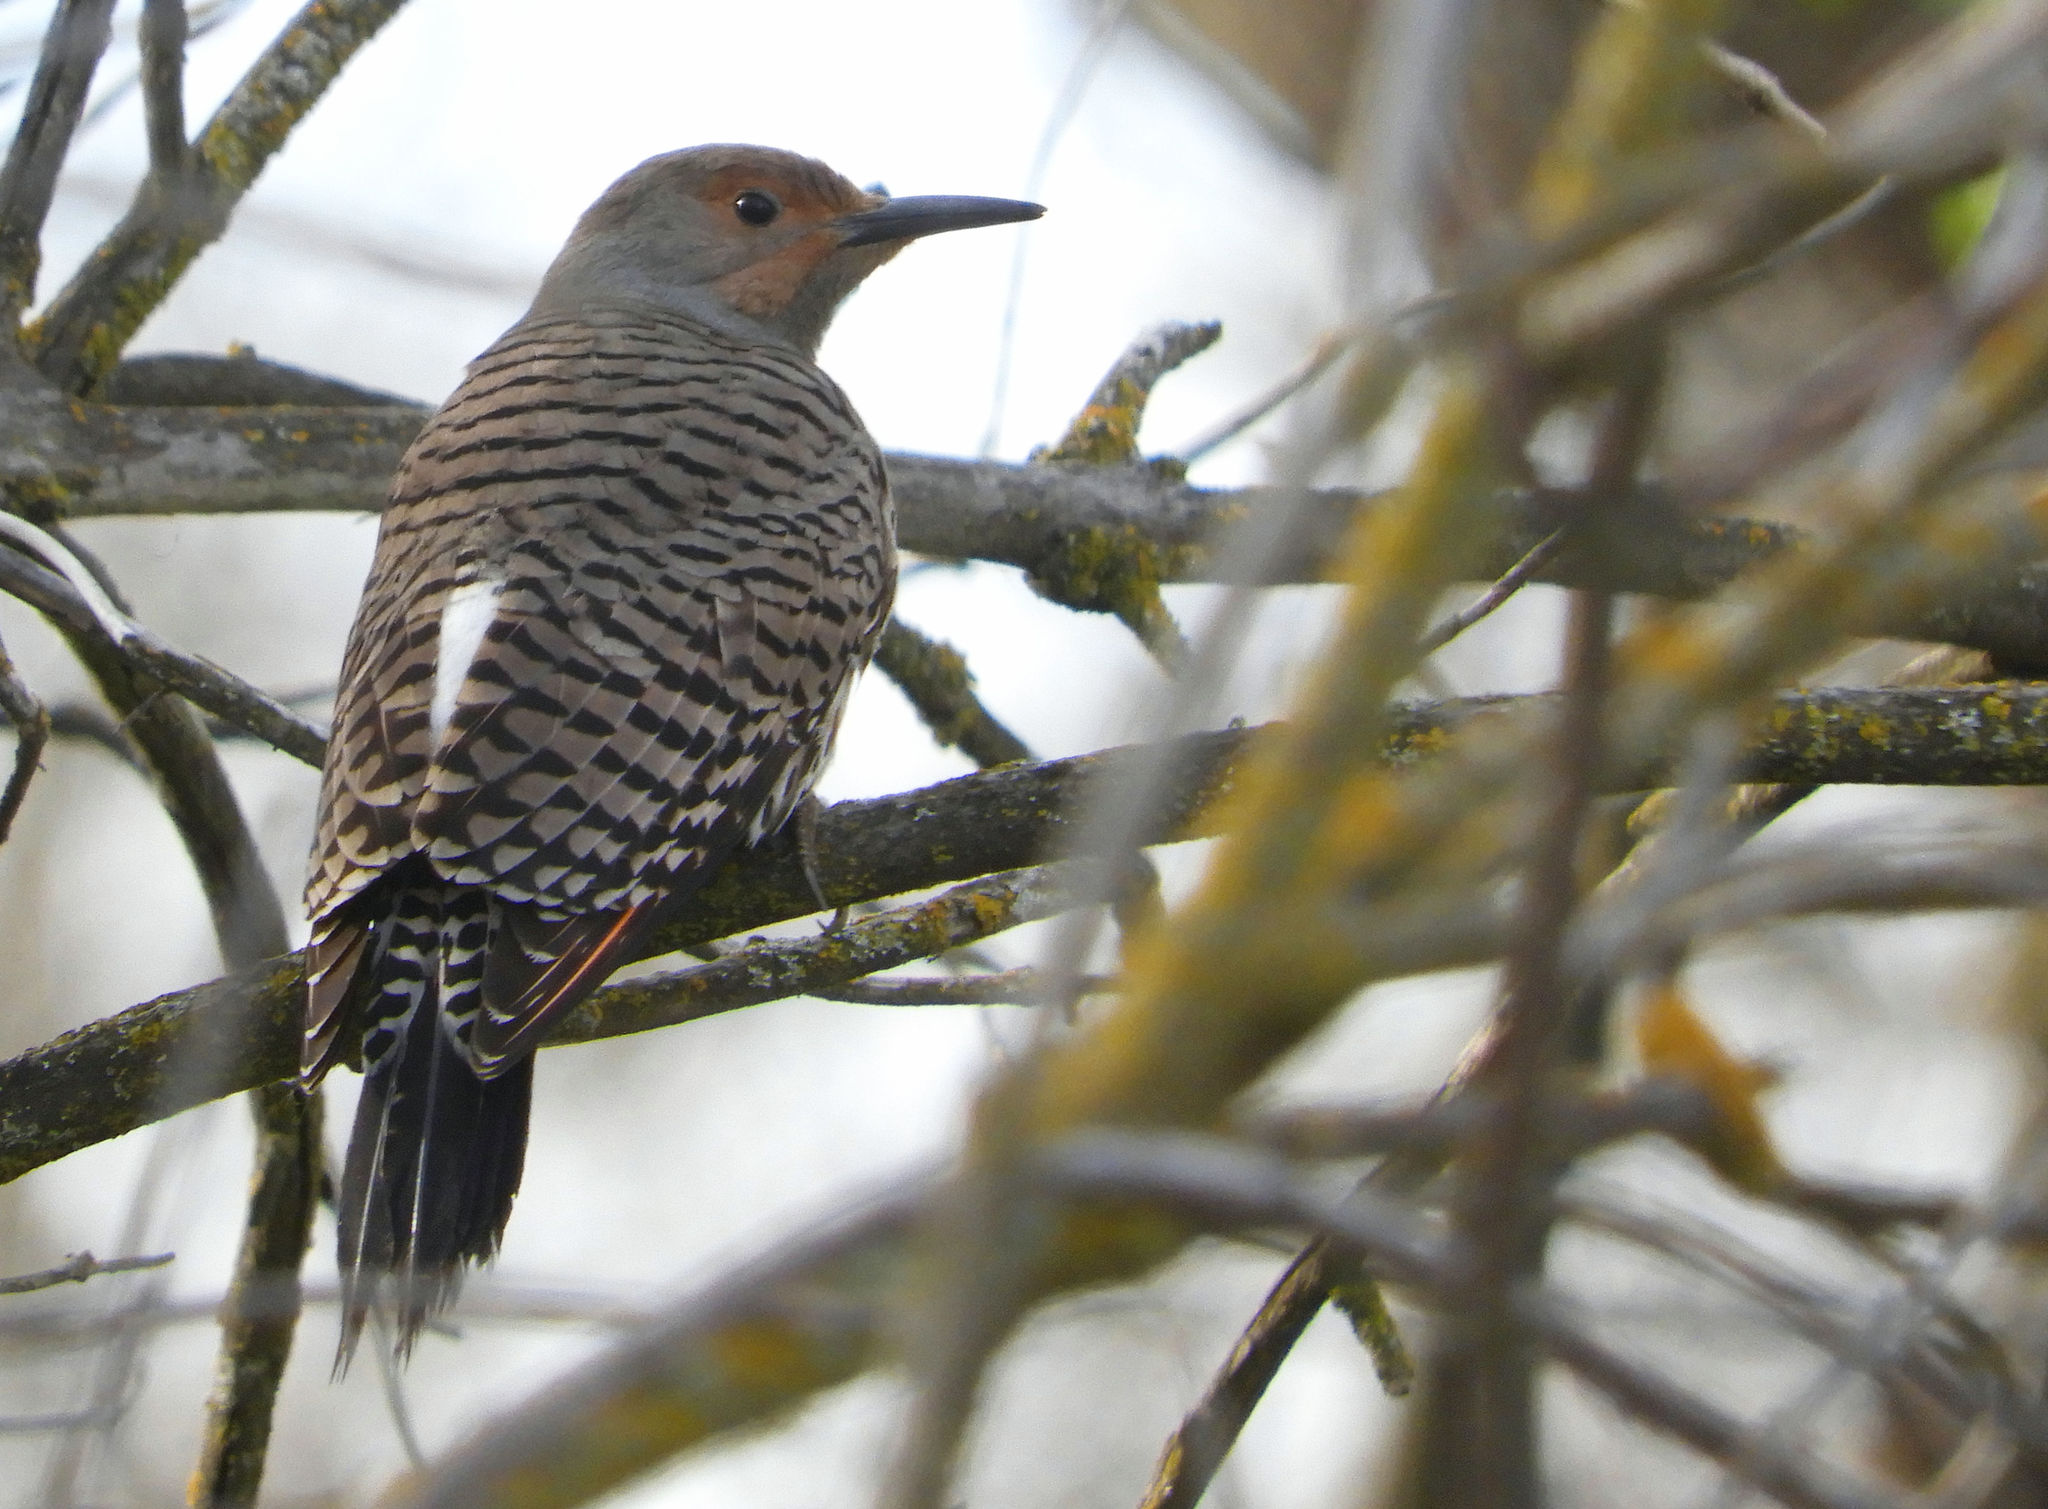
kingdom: Animalia
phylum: Chordata
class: Aves
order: Piciformes
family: Picidae
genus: Colaptes
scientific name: Colaptes auratus
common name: Northern flicker
